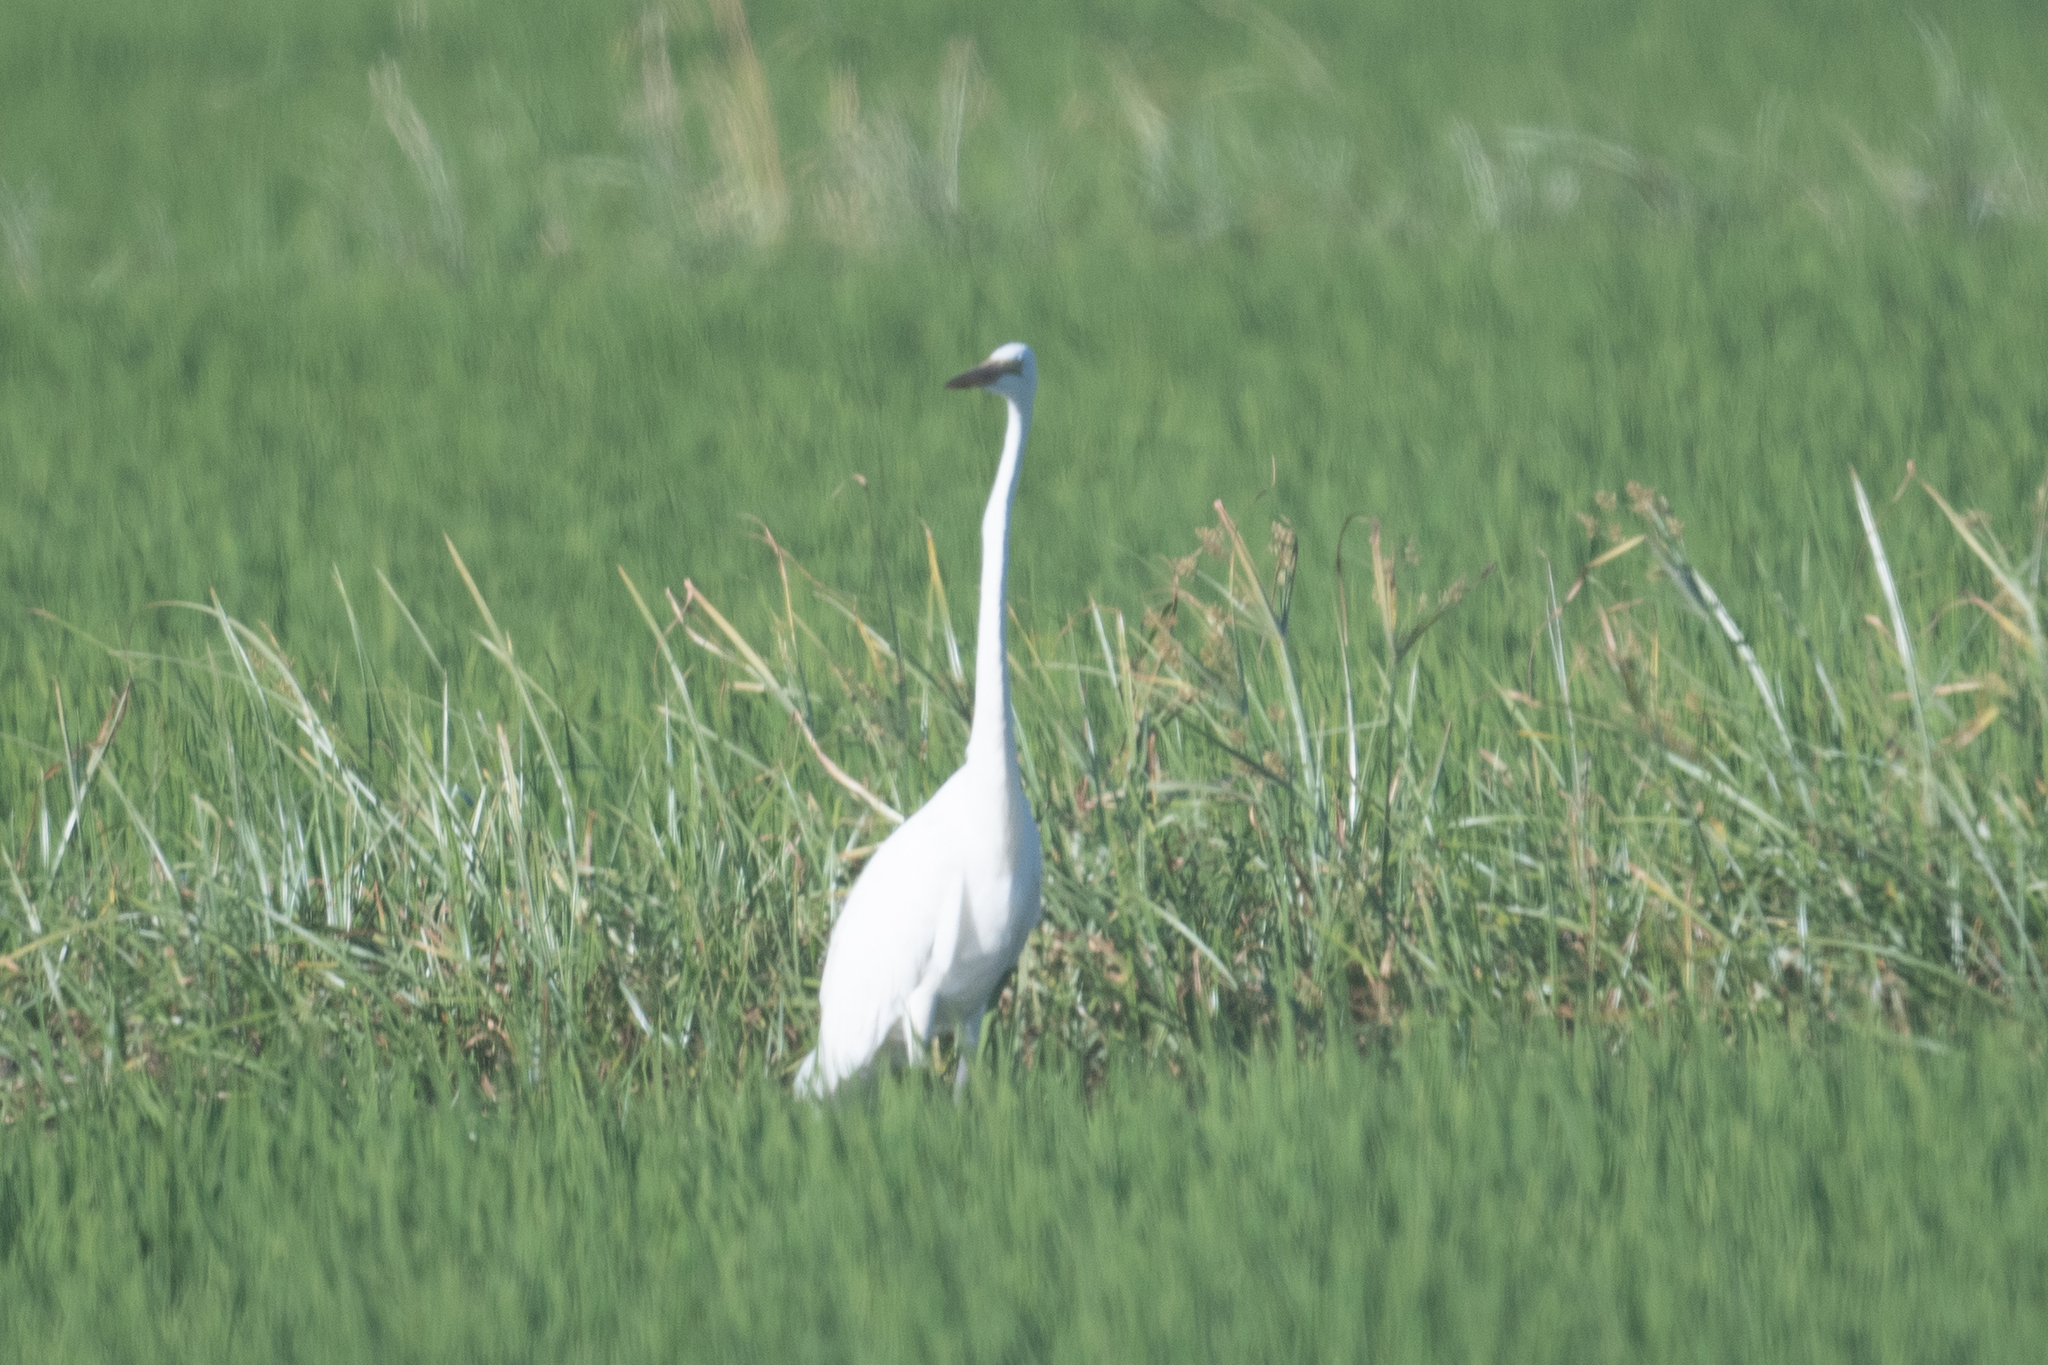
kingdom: Animalia
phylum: Chordata
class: Aves
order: Pelecaniformes
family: Ardeidae
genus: Ardea
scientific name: Ardea alba
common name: Great egret
